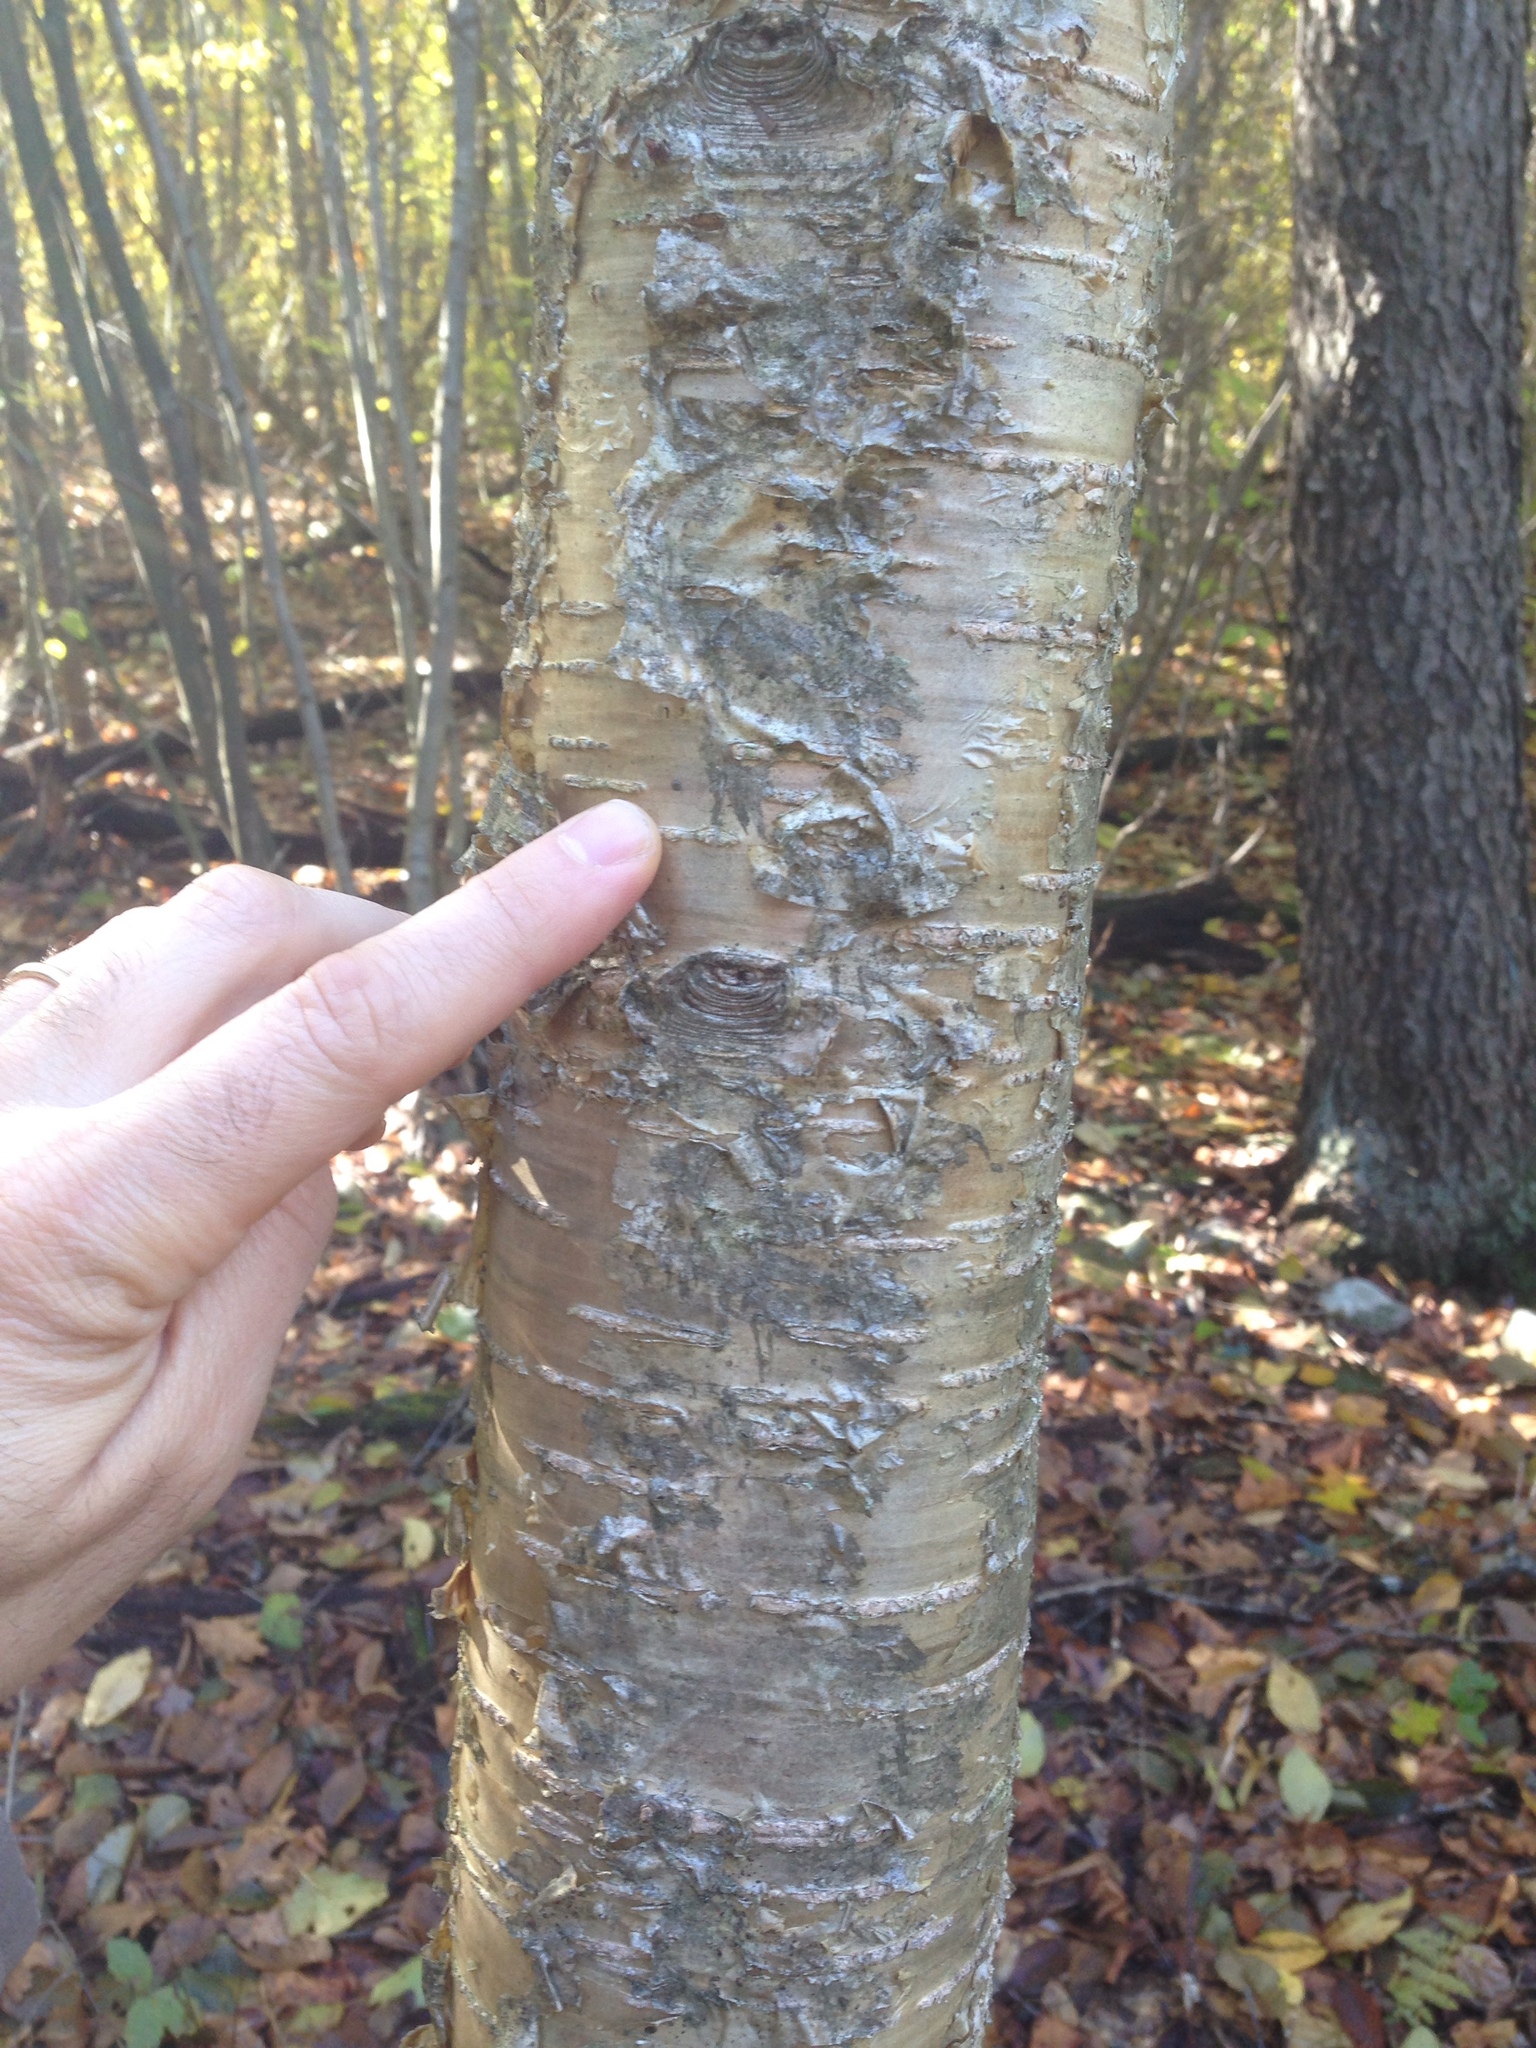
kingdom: Plantae
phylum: Tracheophyta
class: Magnoliopsida
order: Fagales
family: Betulaceae
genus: Betula
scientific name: Betula alleghaniensis
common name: Yellow birch
